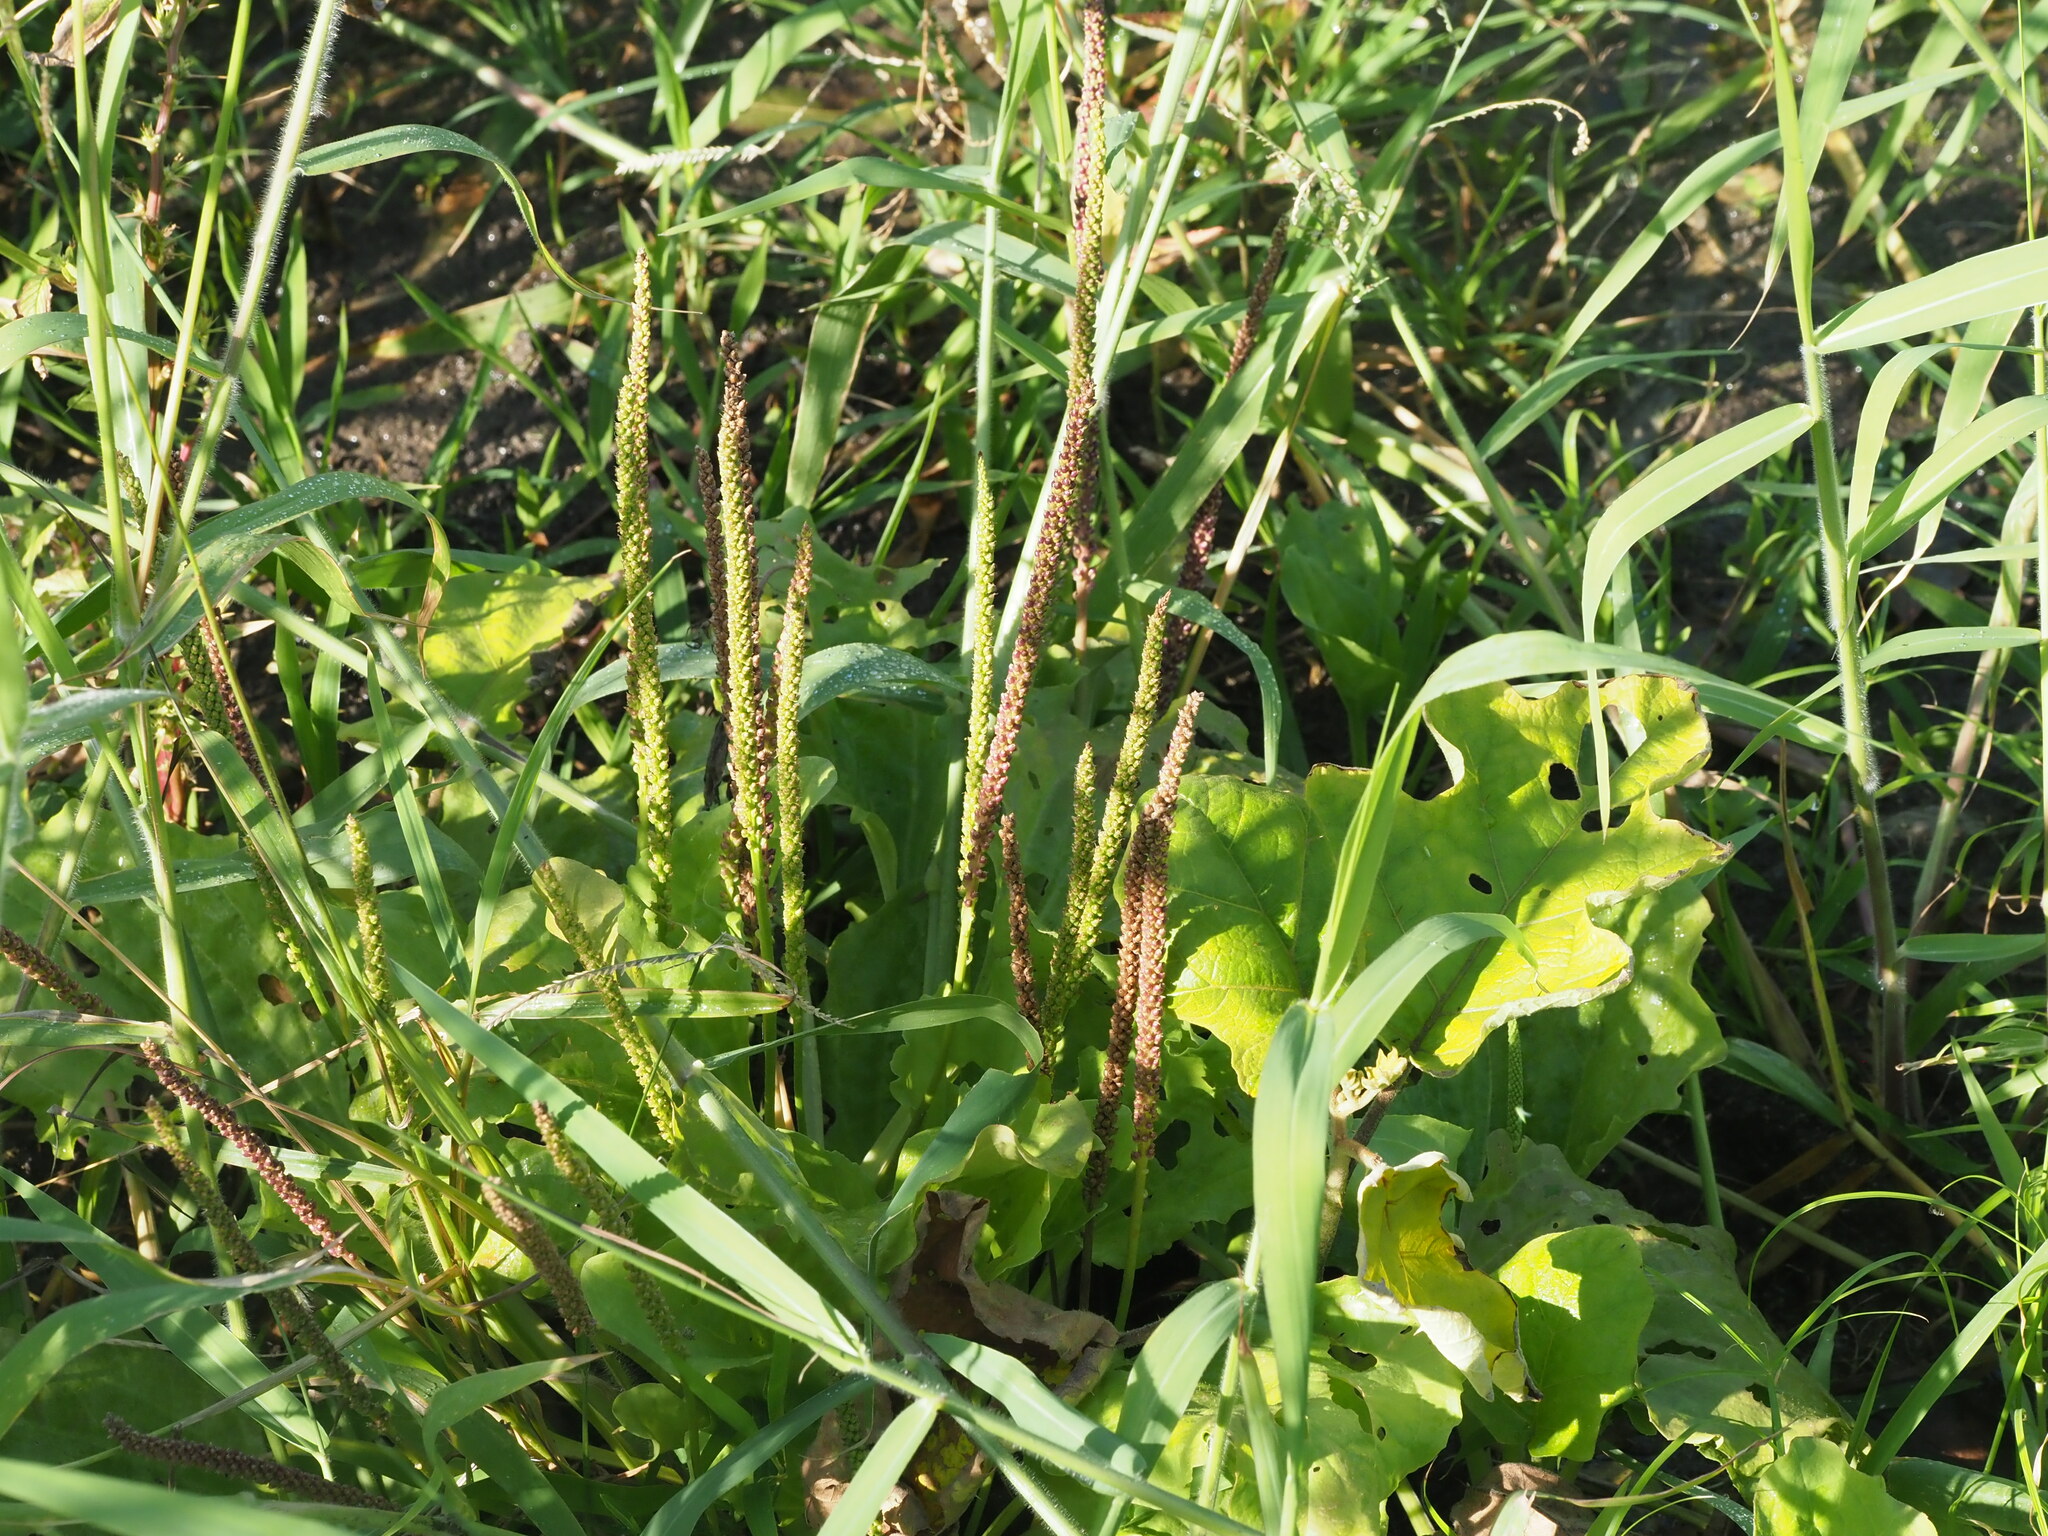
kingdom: Plantae
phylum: Tracheophyta
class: Magnoliopsida
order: Lamiales
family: Plantaginaceae
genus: Plantago
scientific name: Plantago major
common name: Common plantain
